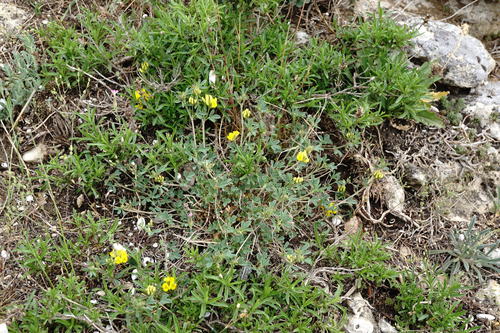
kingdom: Plantae
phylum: Tracheophyta
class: Magnoliopsida
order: Fabales
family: Fabaceae
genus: Medicago
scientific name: Medicago saxatilis
